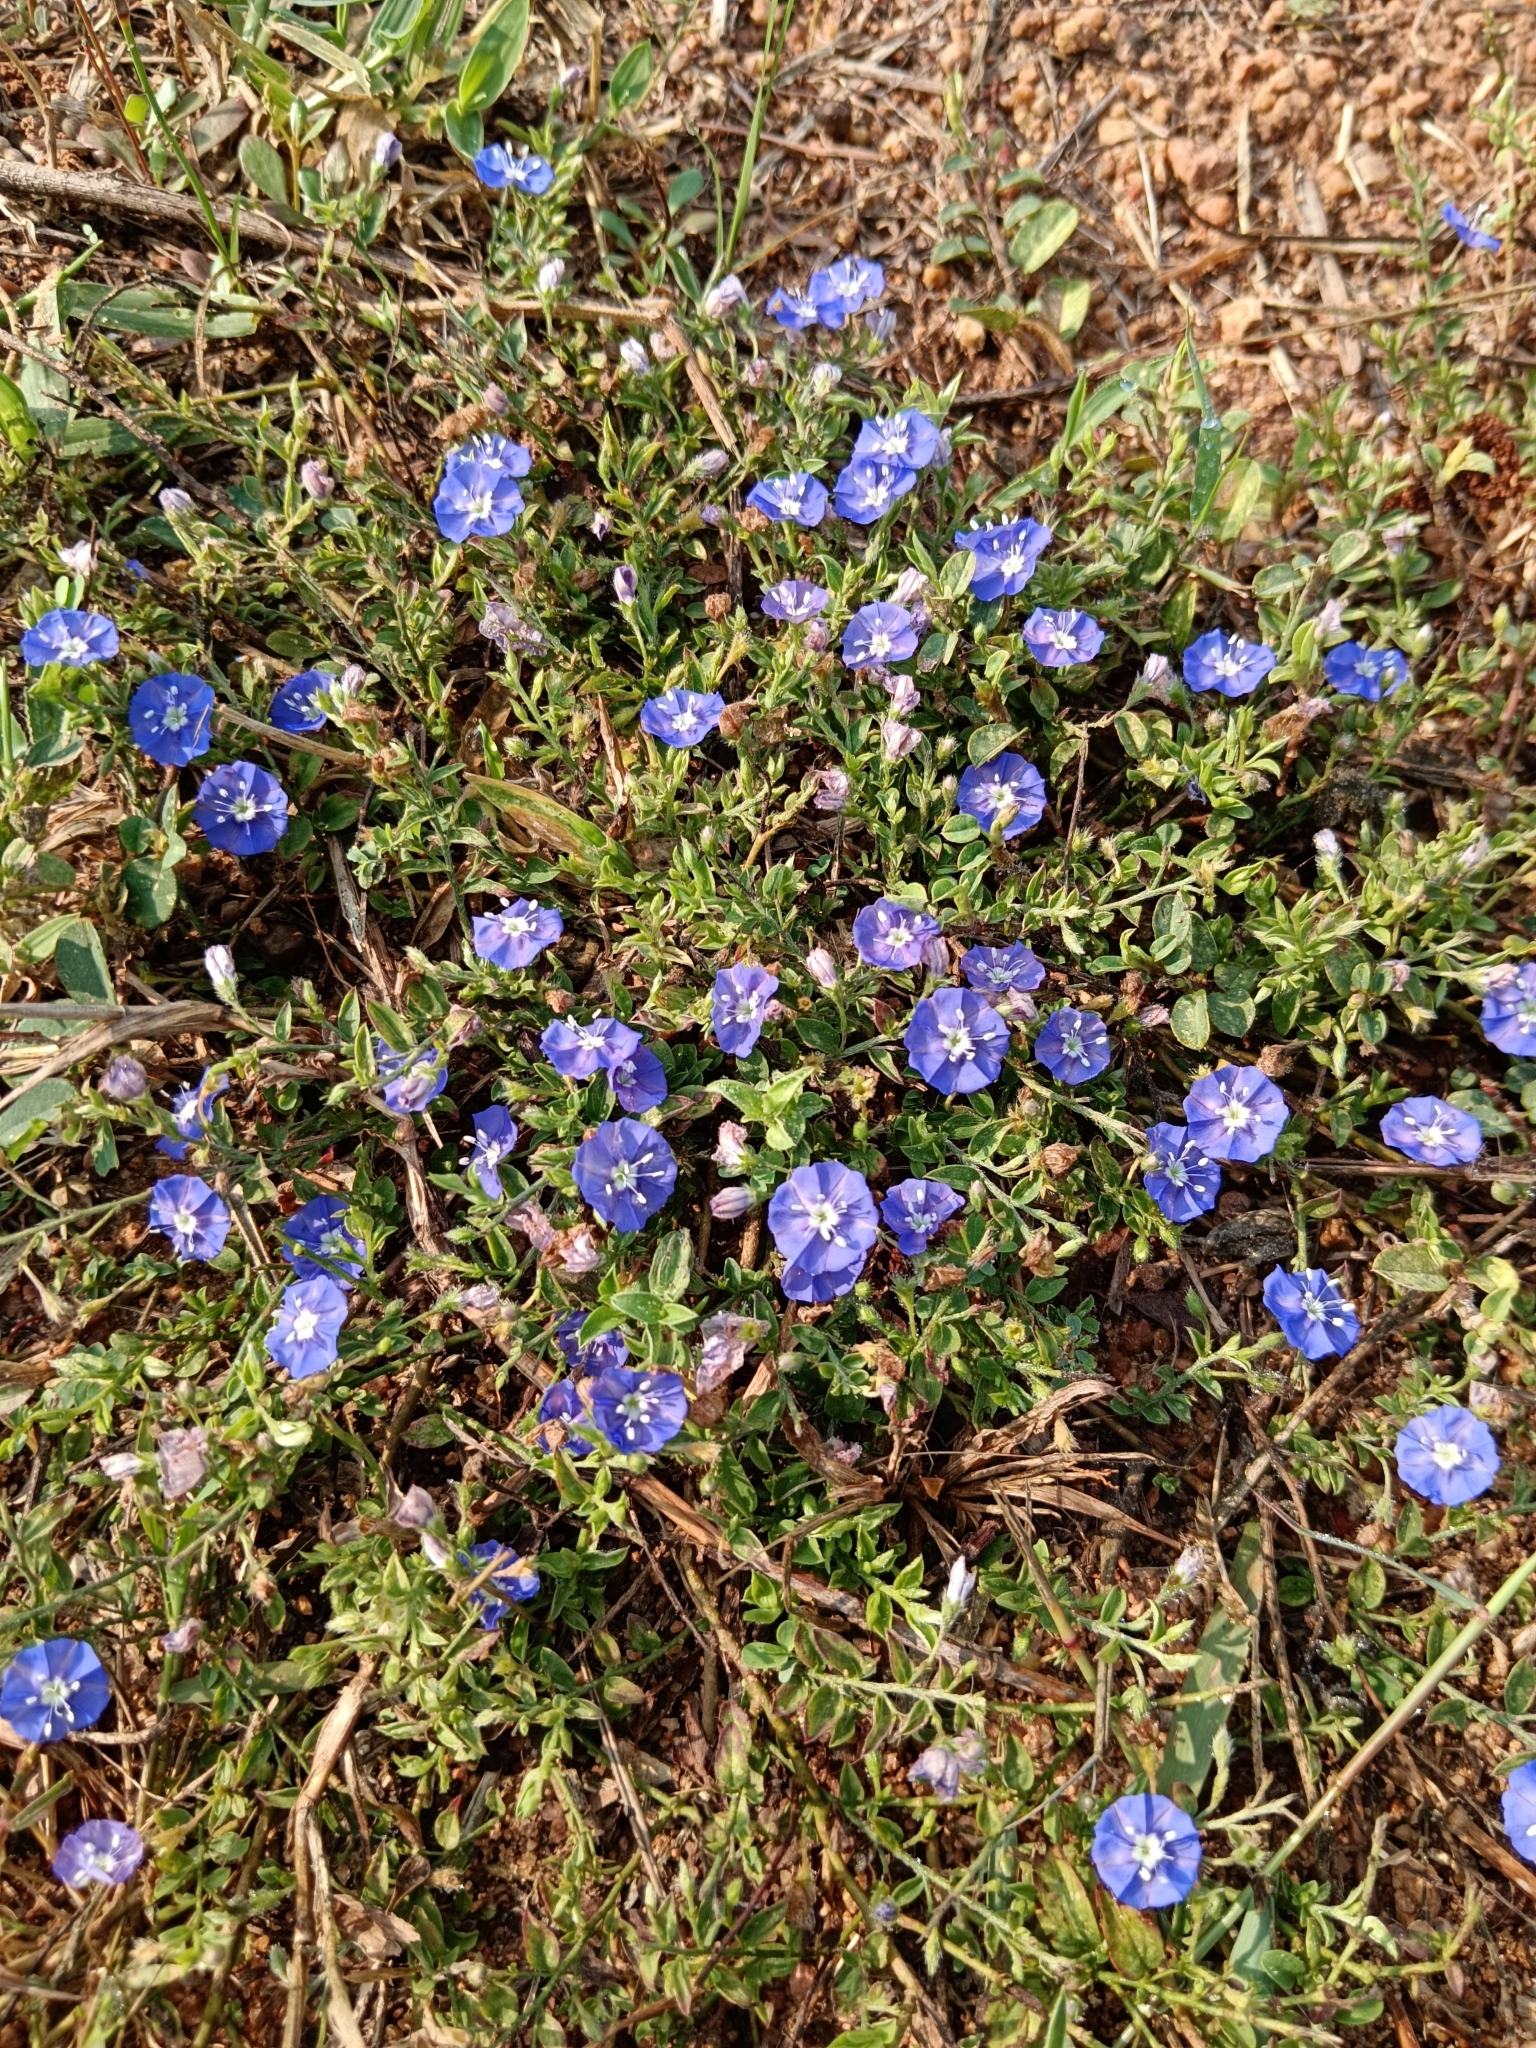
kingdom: Plantae
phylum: Tracheophyta
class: Magnoliopsida
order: Solanales
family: Convolvulaceae
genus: Evolvulus
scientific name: Evolvulus alsinoides
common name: Slender dwarf morning-glory
